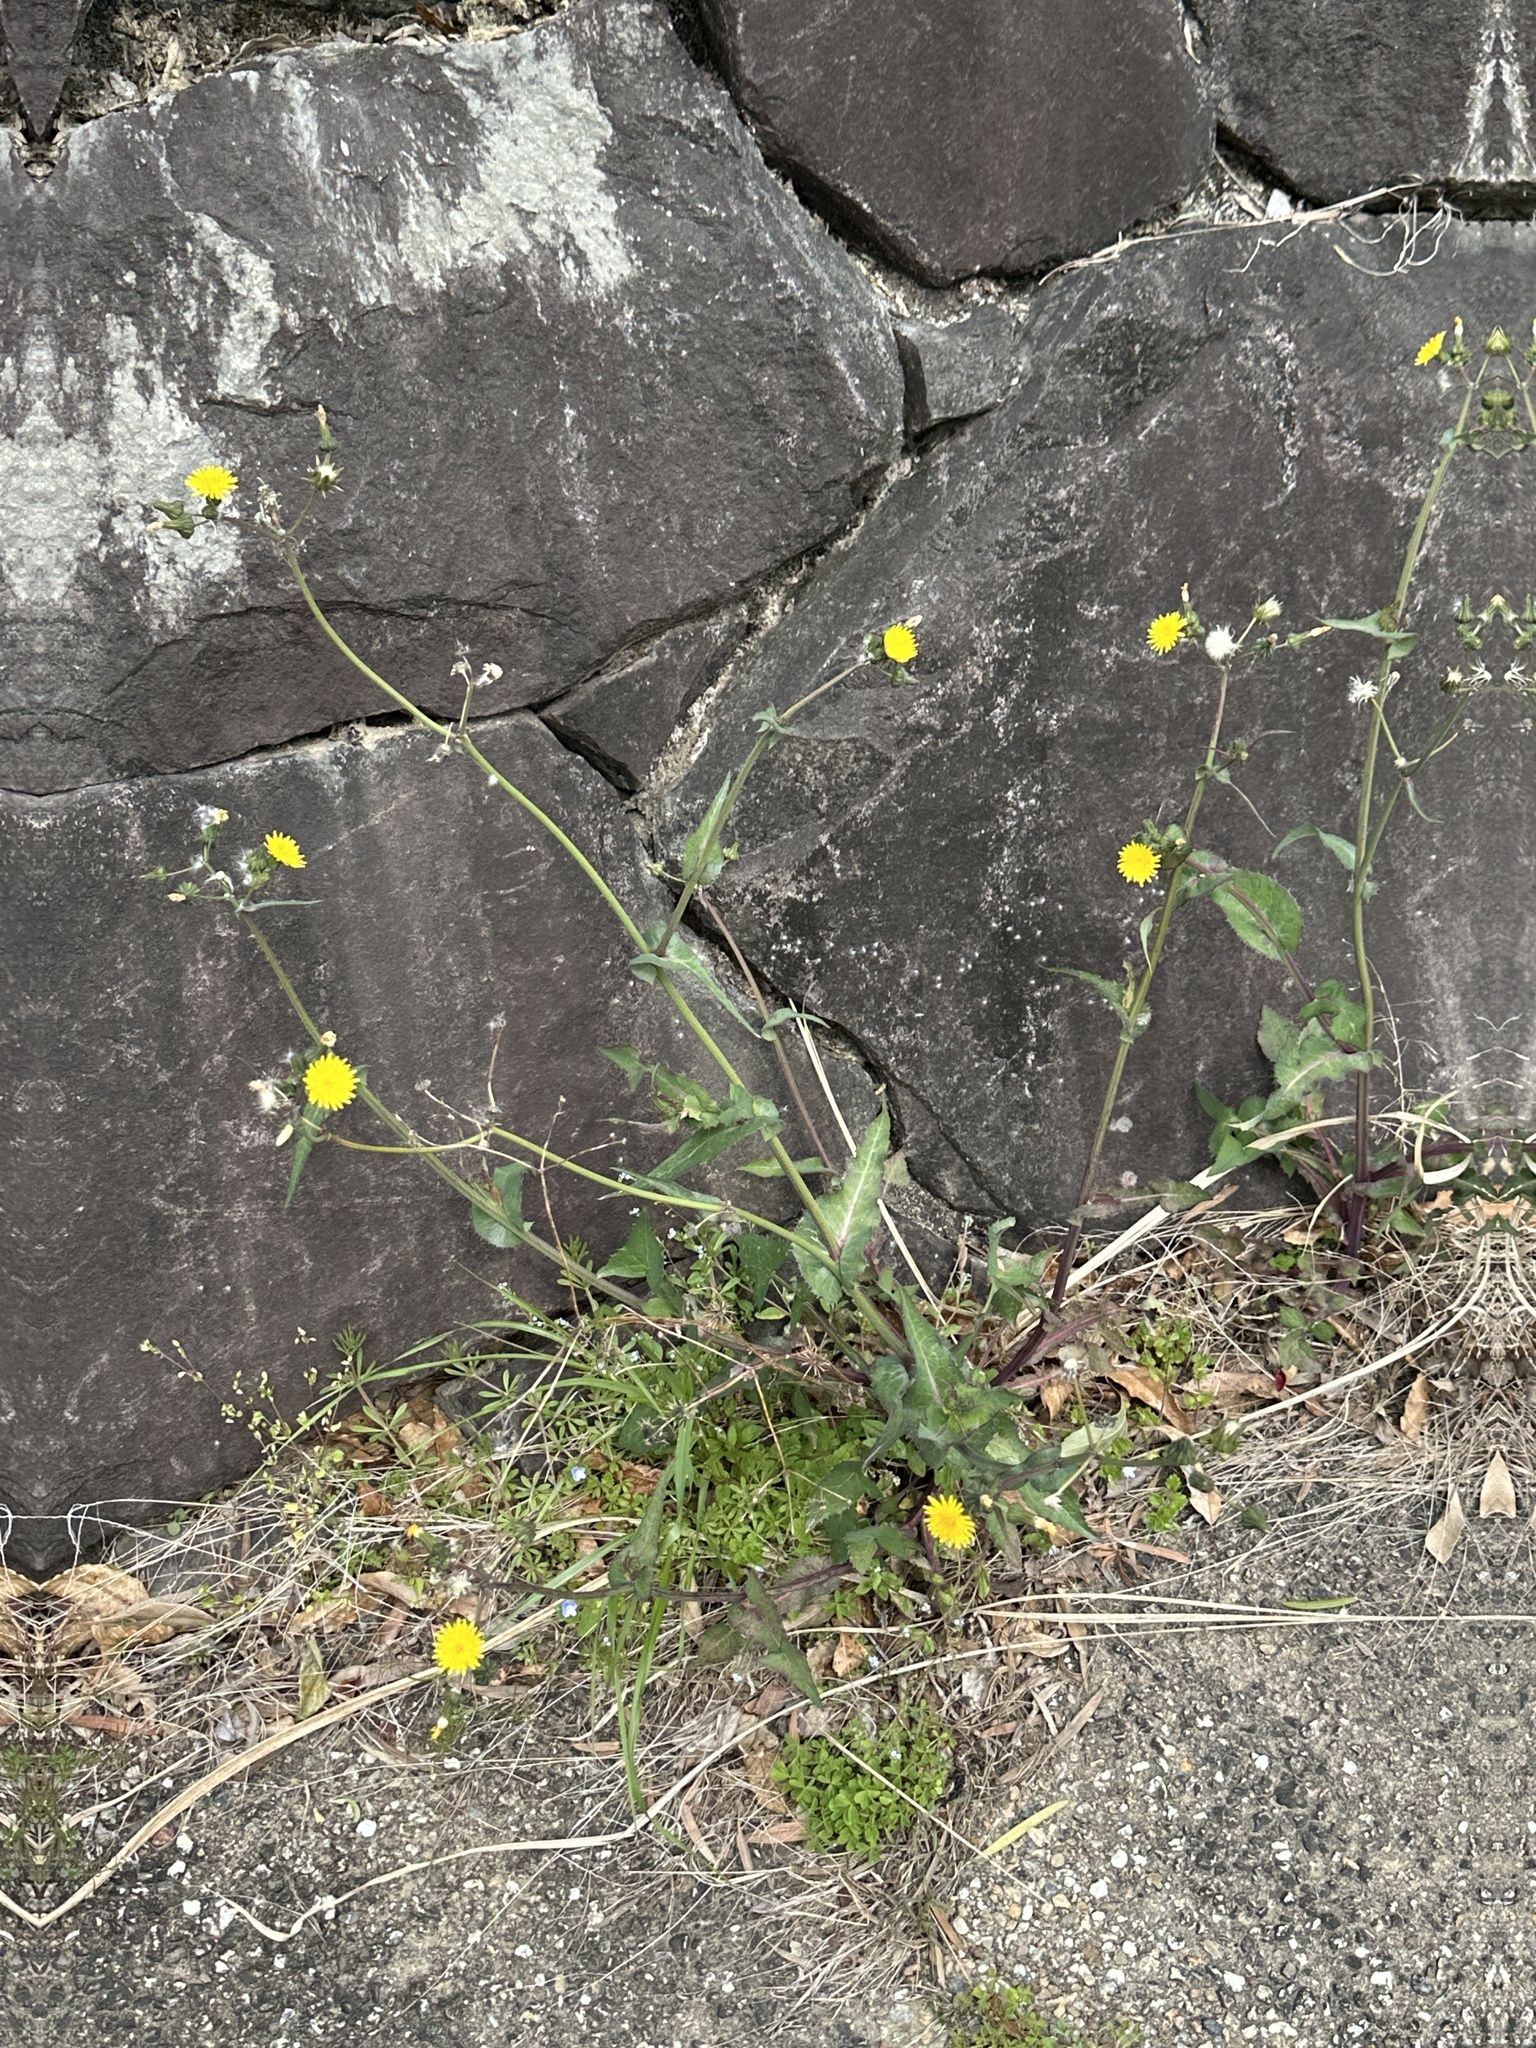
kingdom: Plantae
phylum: Tracheophyta
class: Magnoliopsida
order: Asterales
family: Asteraceae
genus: Sonchus
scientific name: Sonchus oleraceus
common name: Common sowthistle
